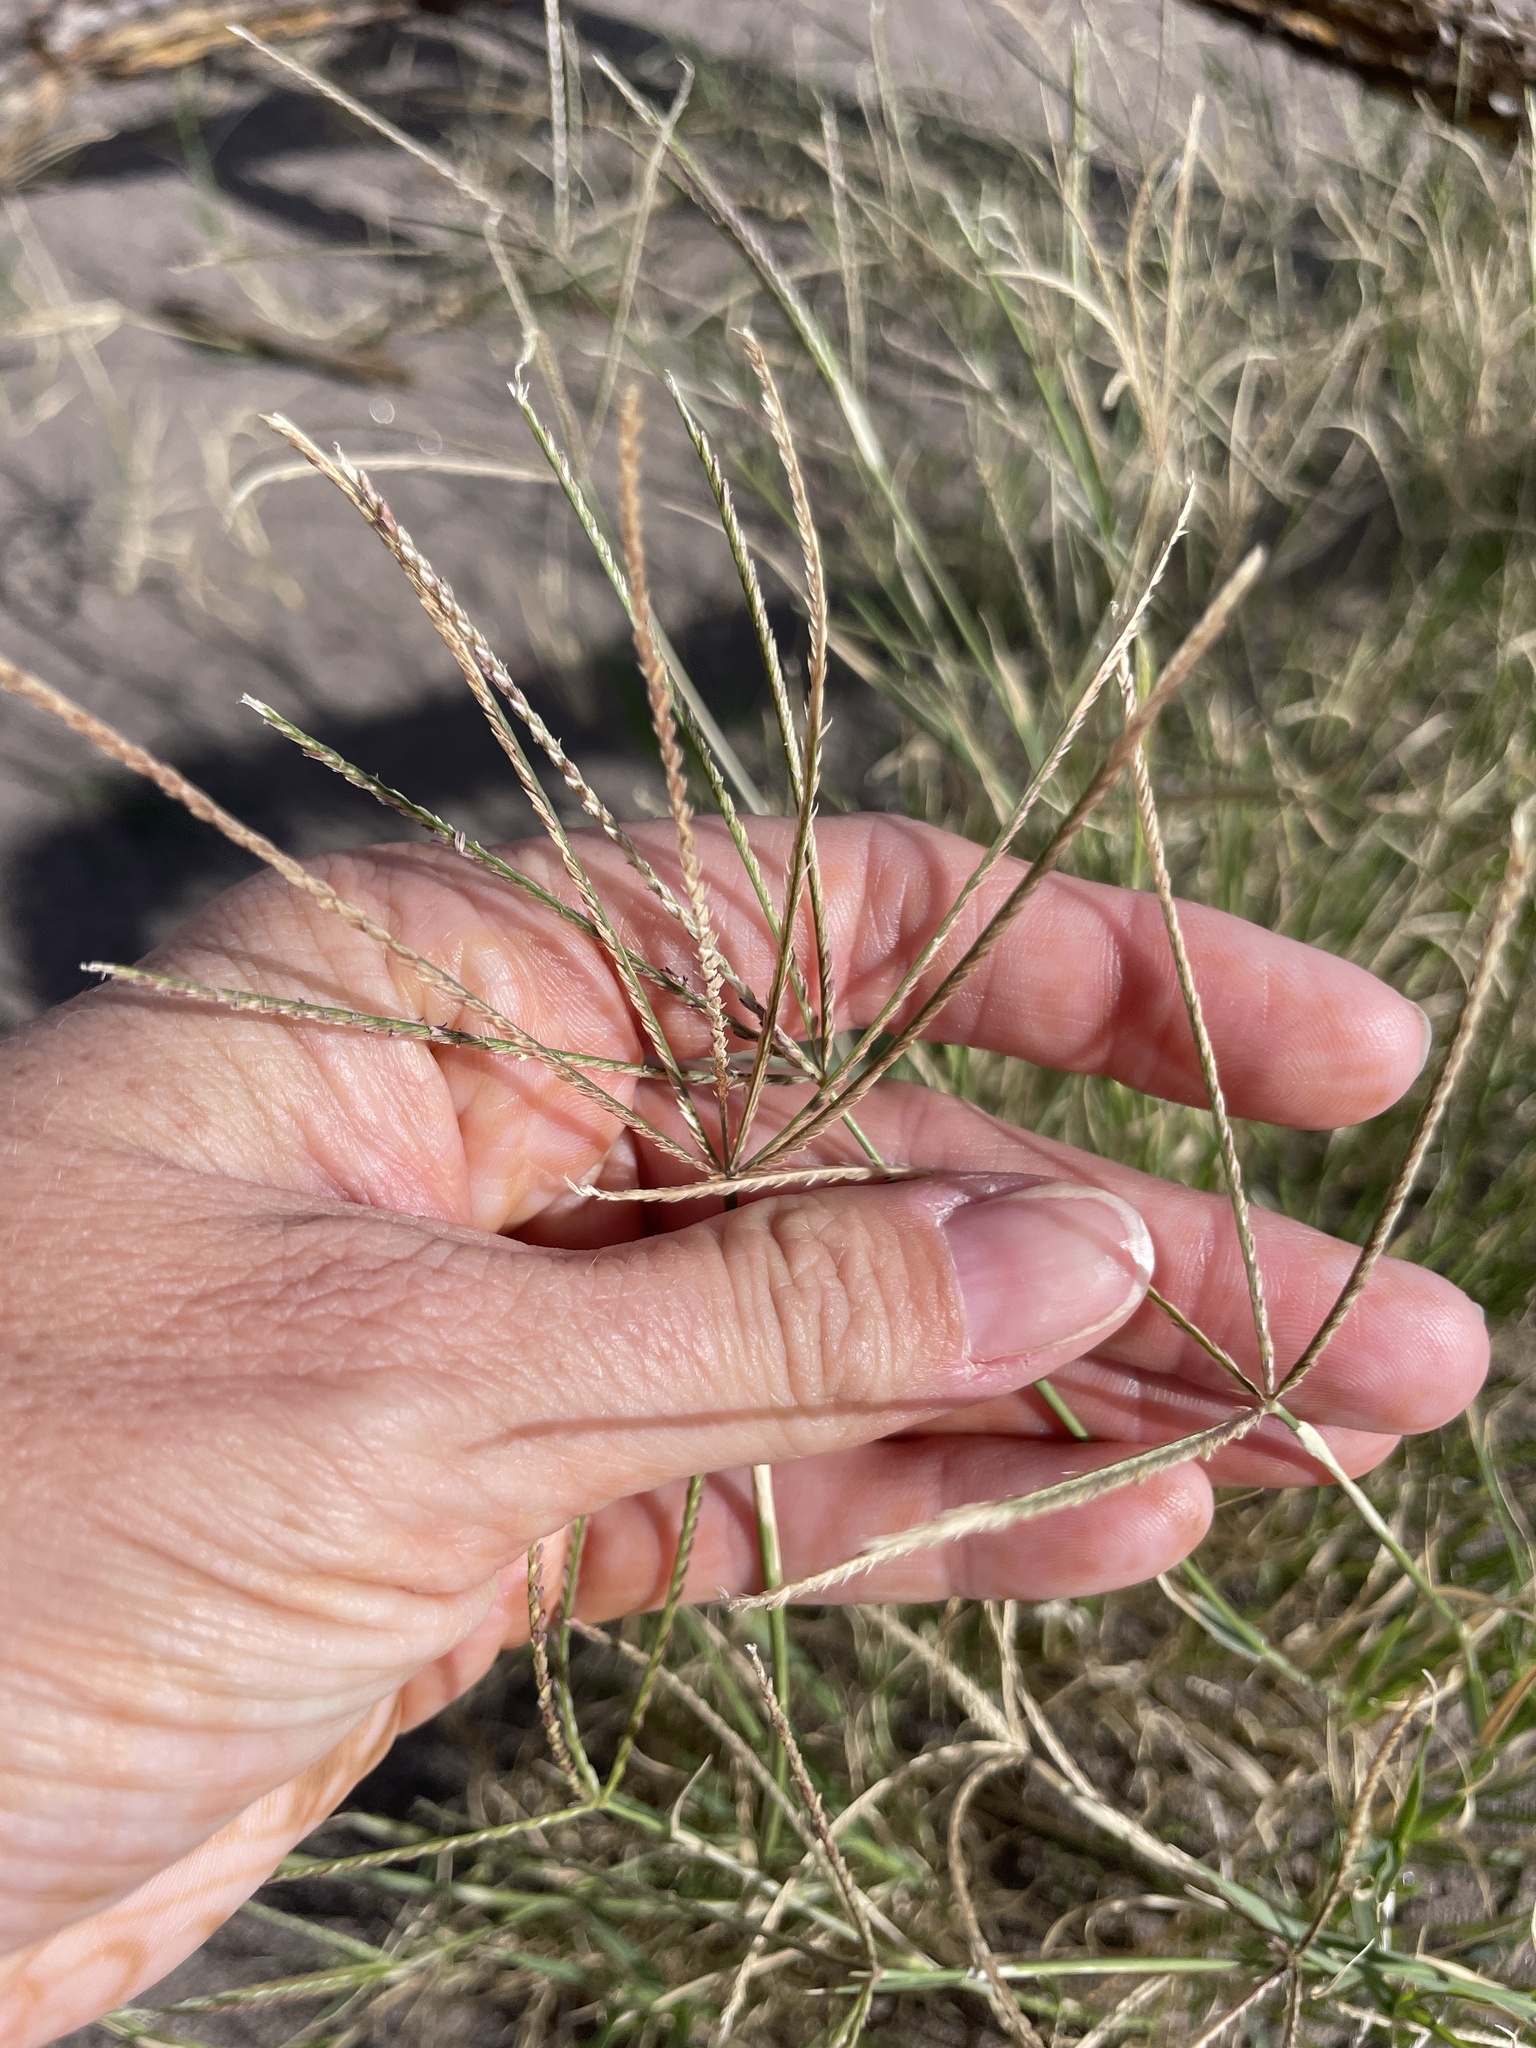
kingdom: Plantae
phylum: Tracheophyta
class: Liliopsida
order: Poales
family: Poaceae
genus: Cynodon
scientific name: Cynodon dactylon
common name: Bermuda grass
